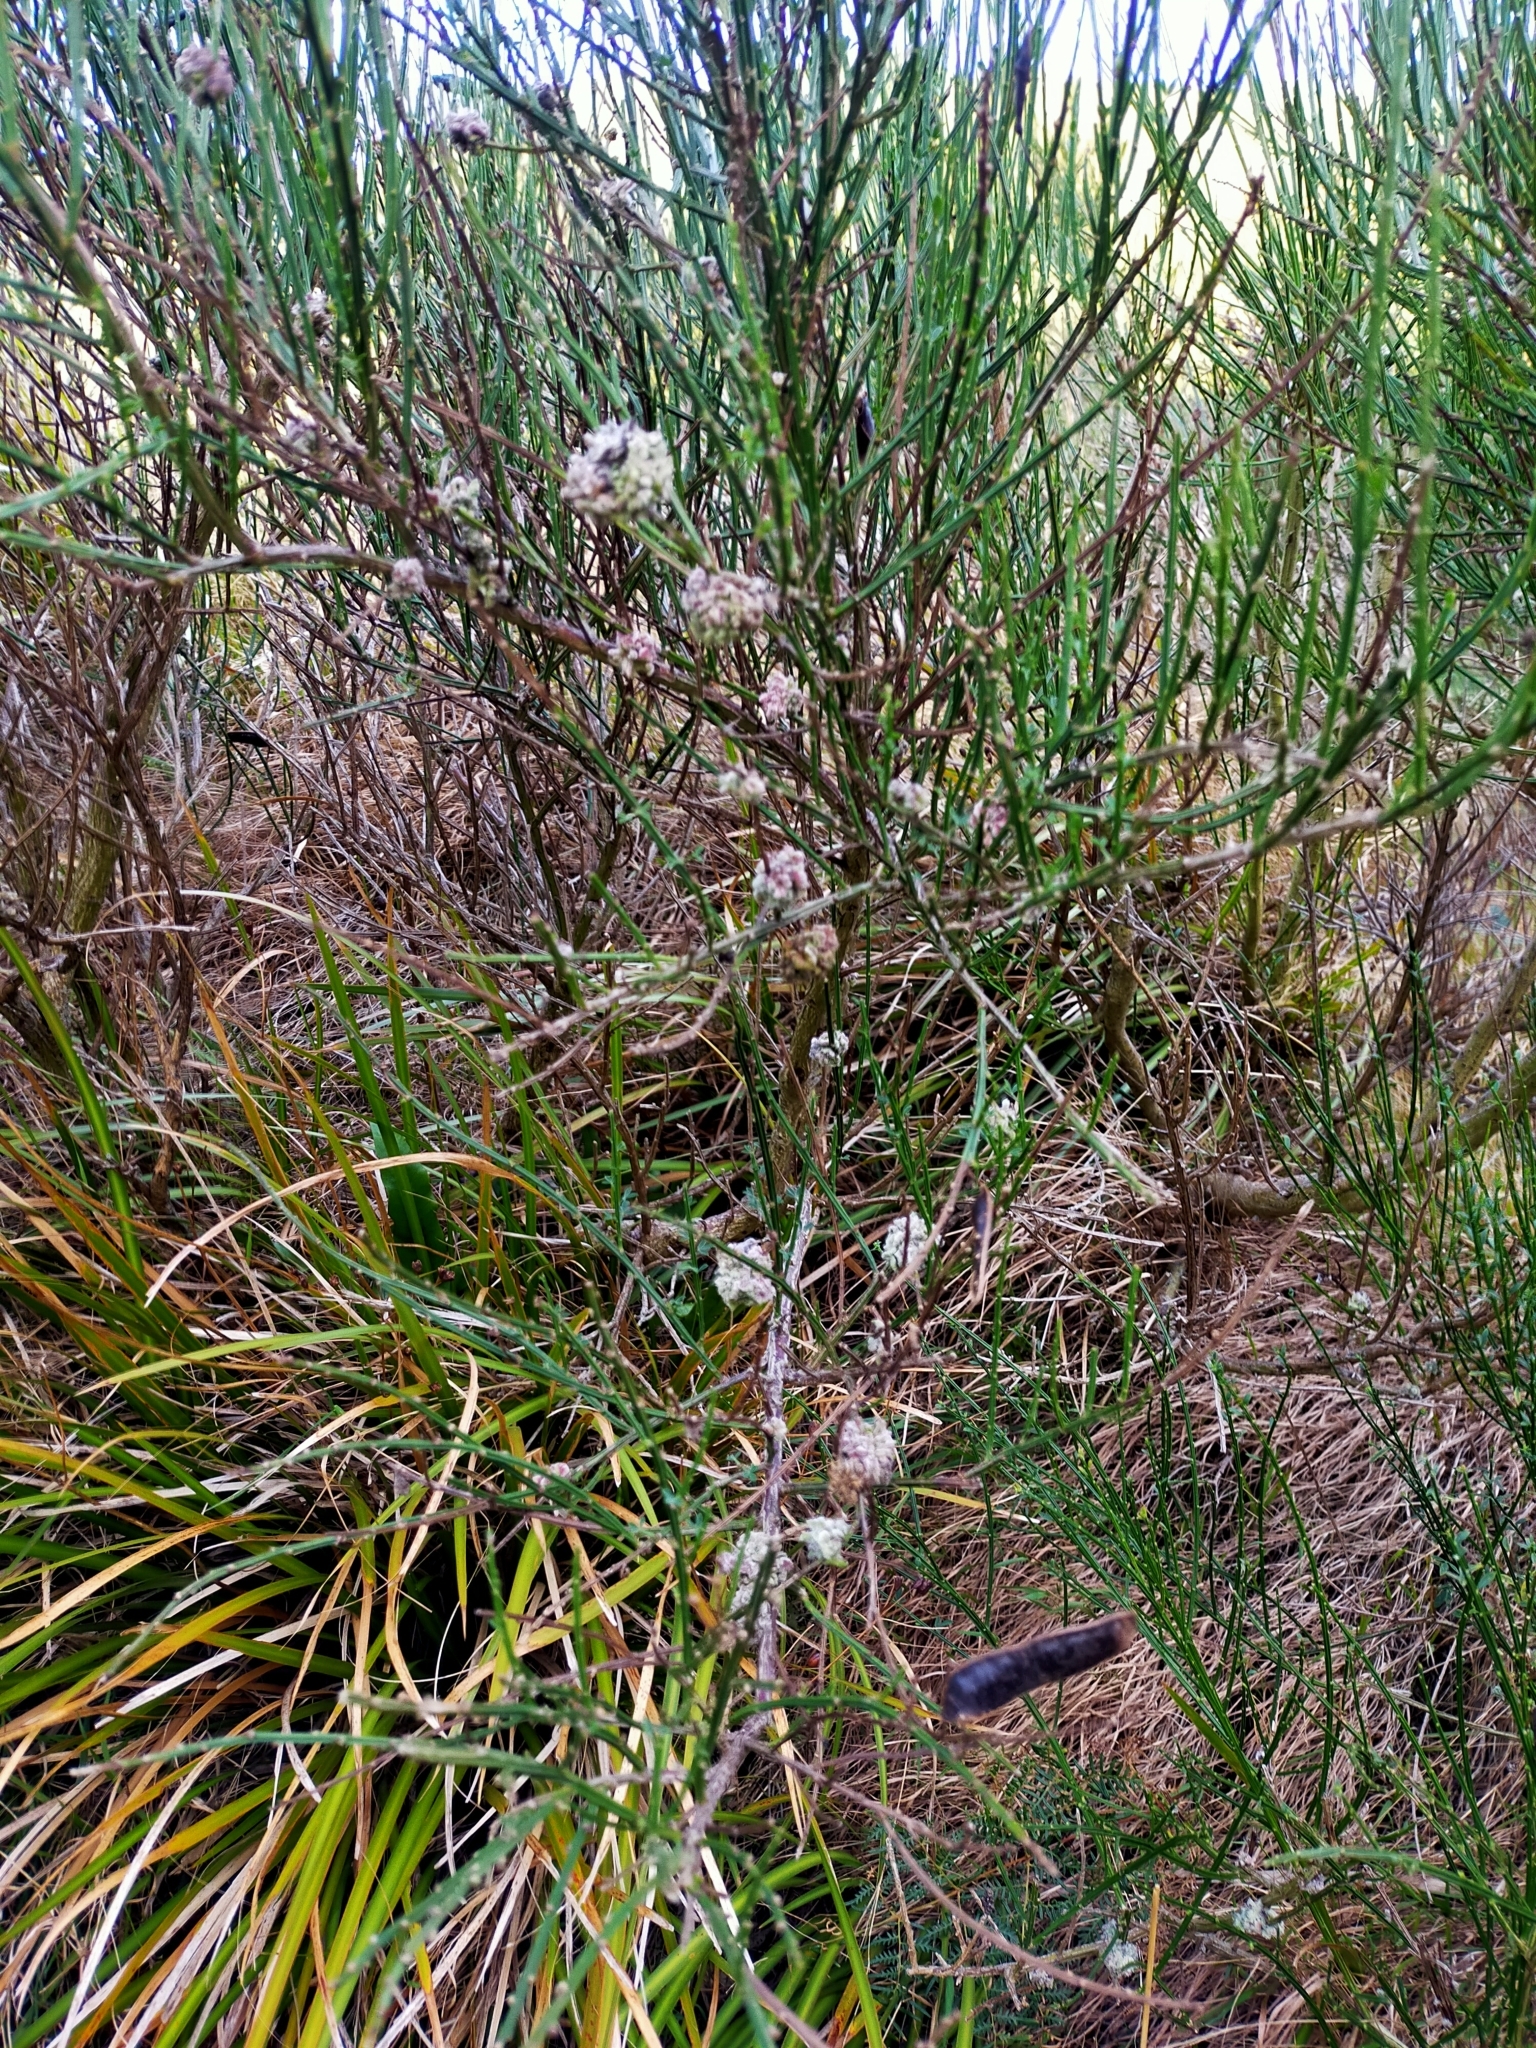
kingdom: Animalia
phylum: Arthropoda
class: Arachnida
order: Trombidiformes
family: Eriophyidae
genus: Aceria
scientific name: Aceria genistae
